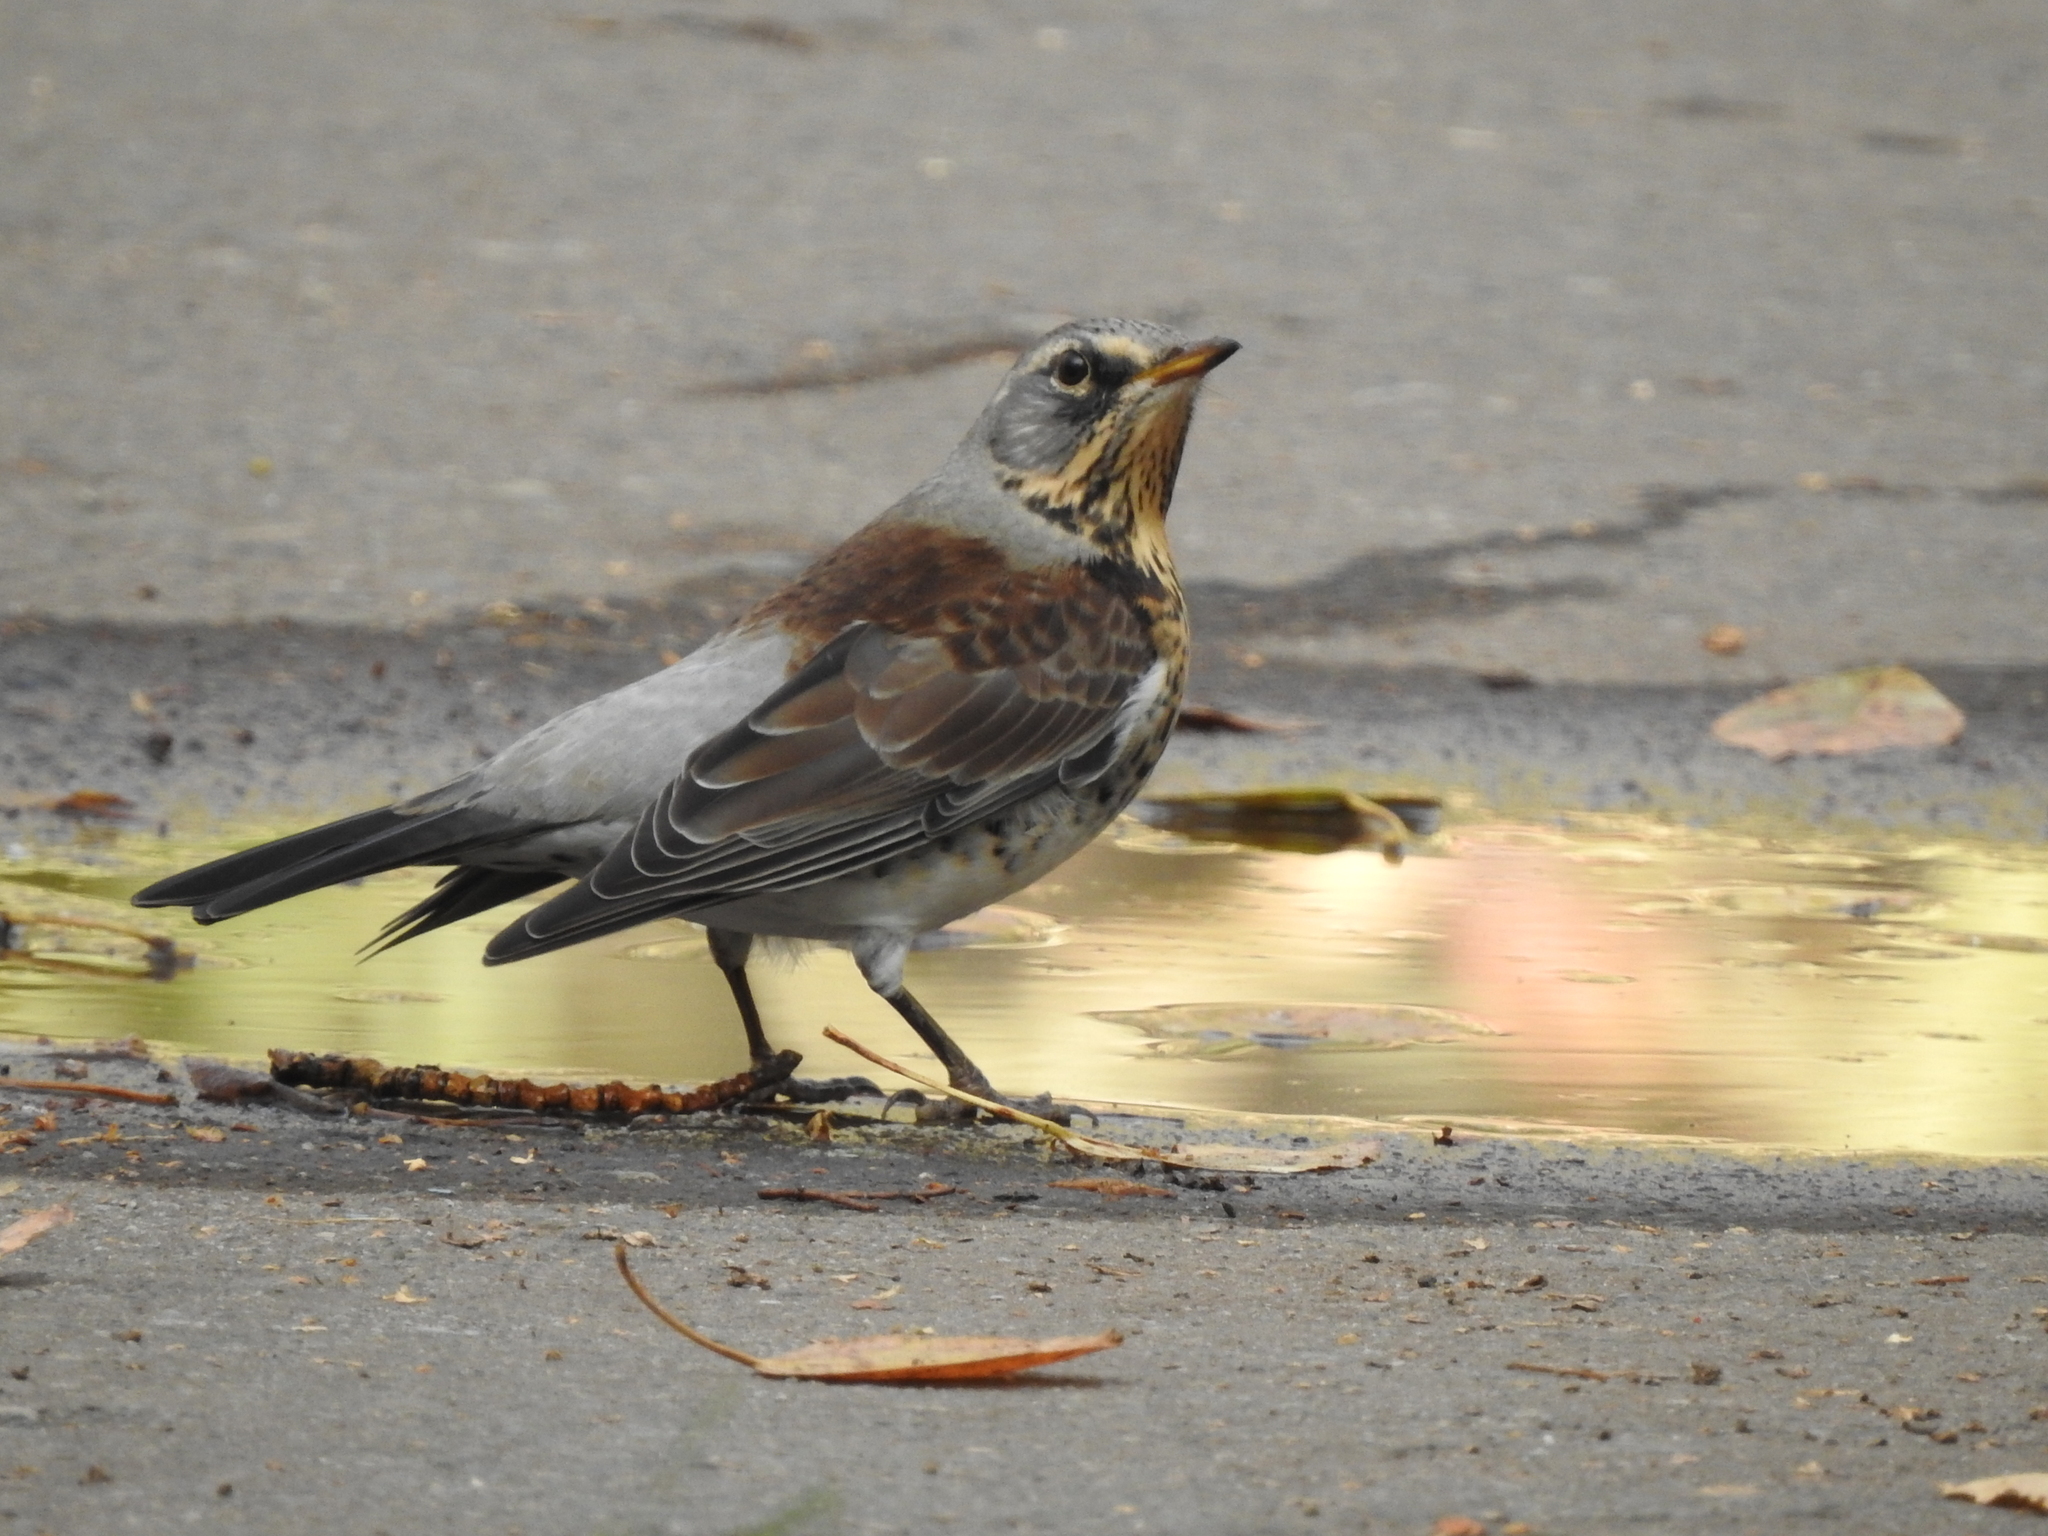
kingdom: Animalia
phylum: Chordata
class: Aves
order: Passeriformes
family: Turdidae
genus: Turdus
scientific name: Turdus pilaris
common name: Fieldfare
